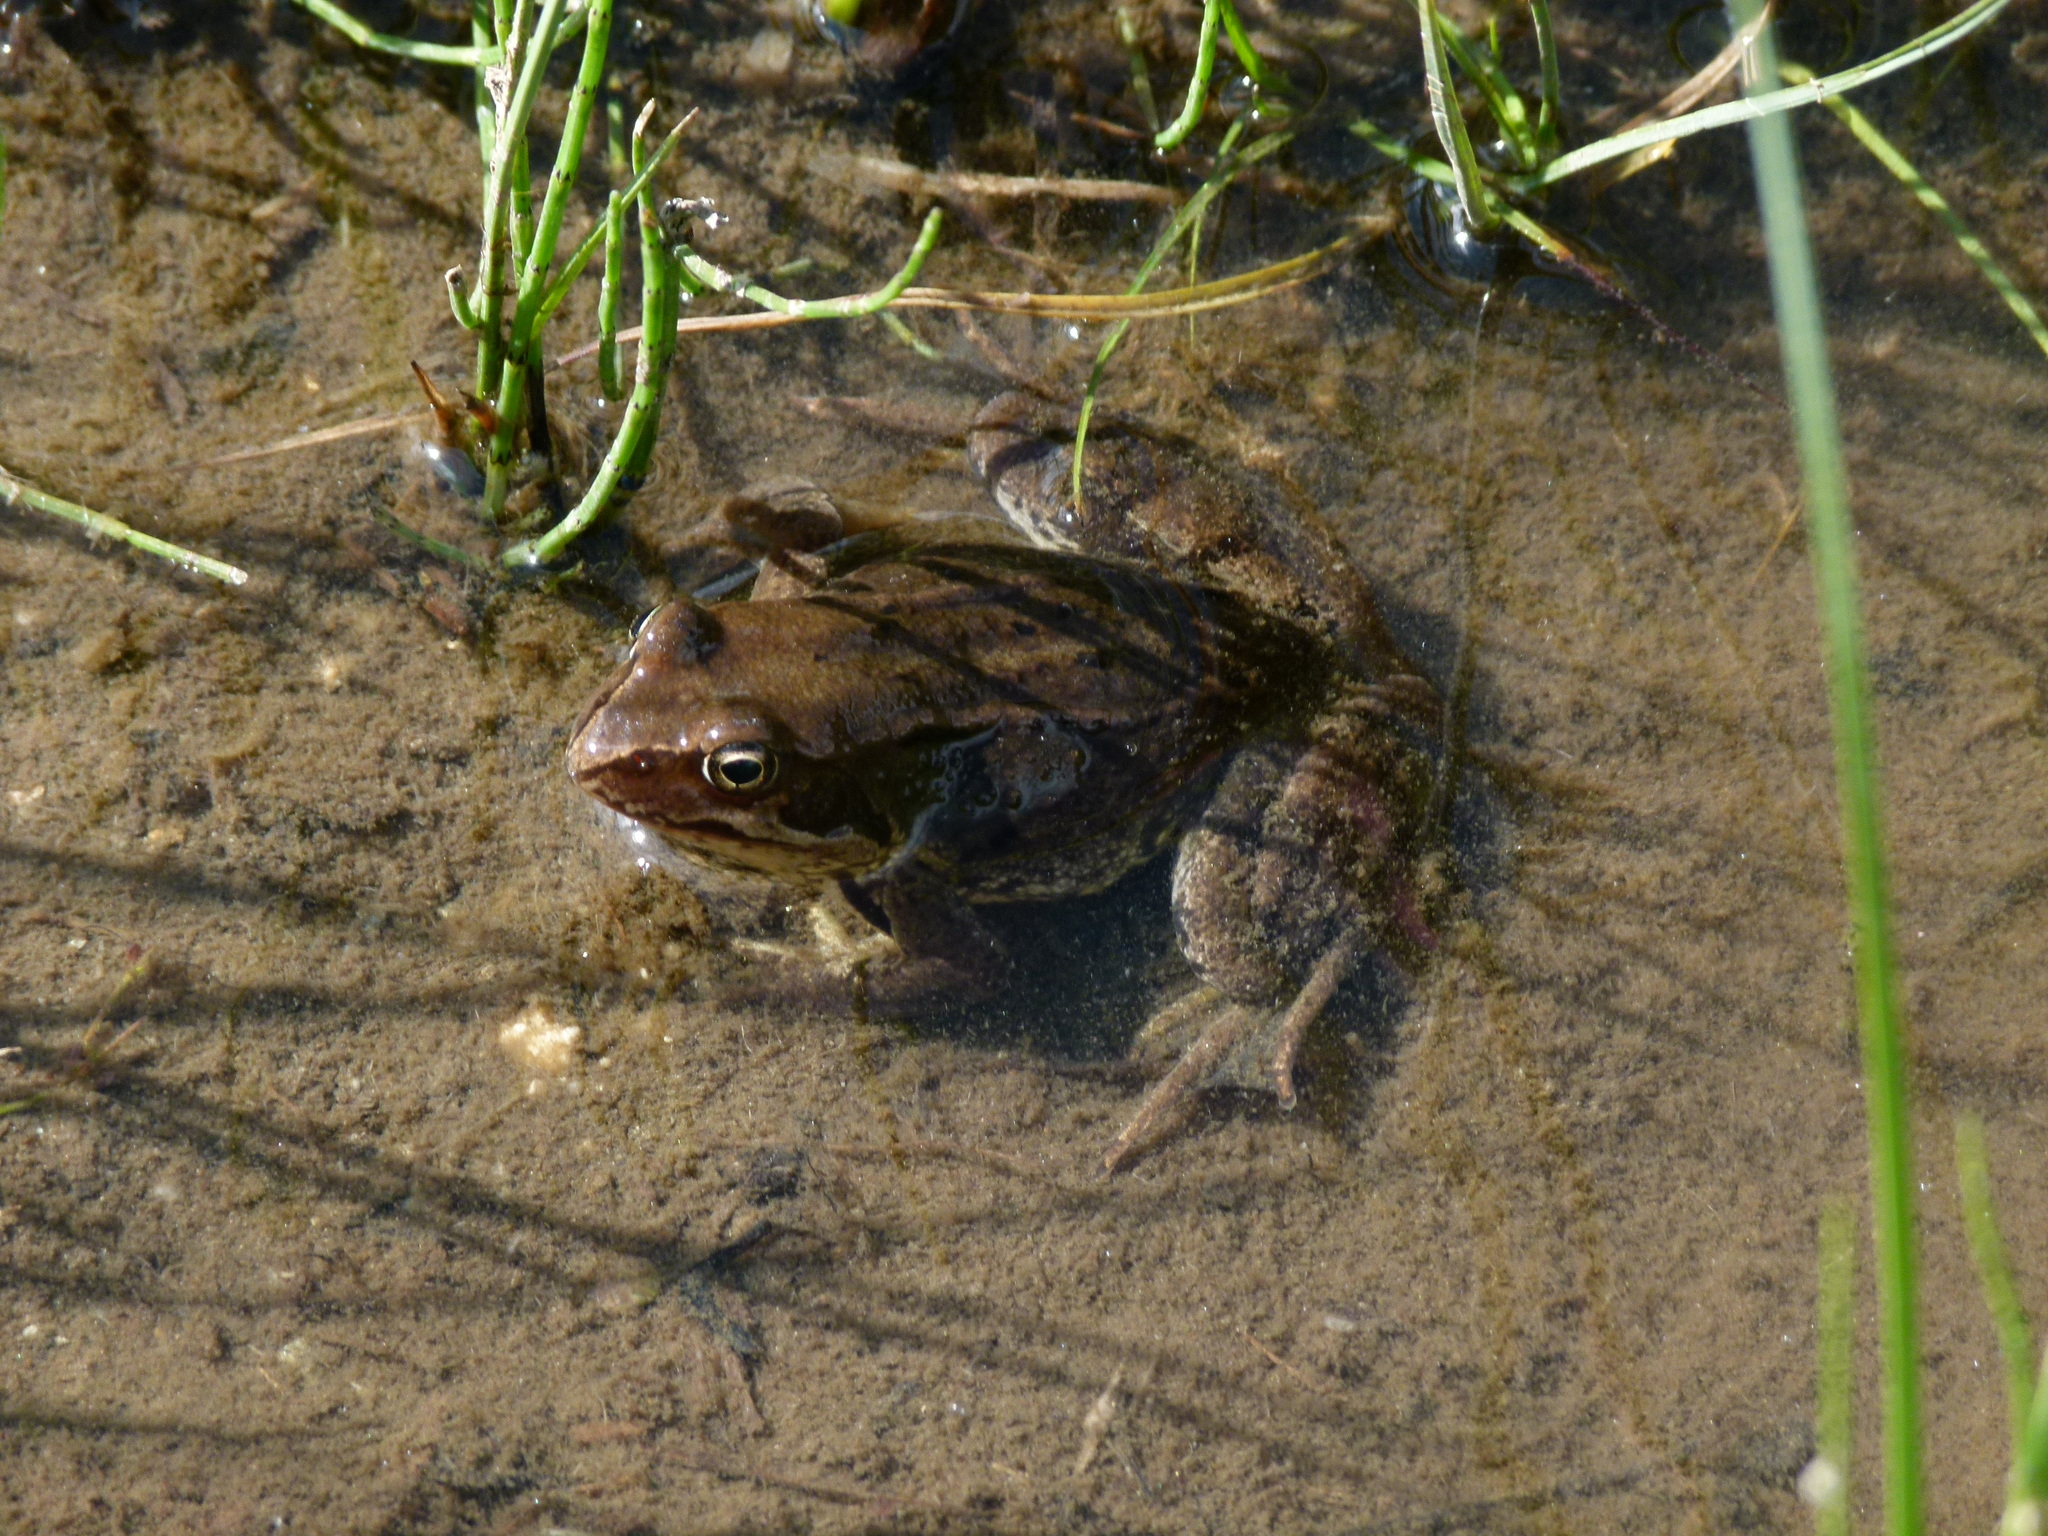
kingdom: Animalia
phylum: Chordata
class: Amphibia
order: Anura
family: Ranidae
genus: Rana
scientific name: Rana temporaria
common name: Common frog
